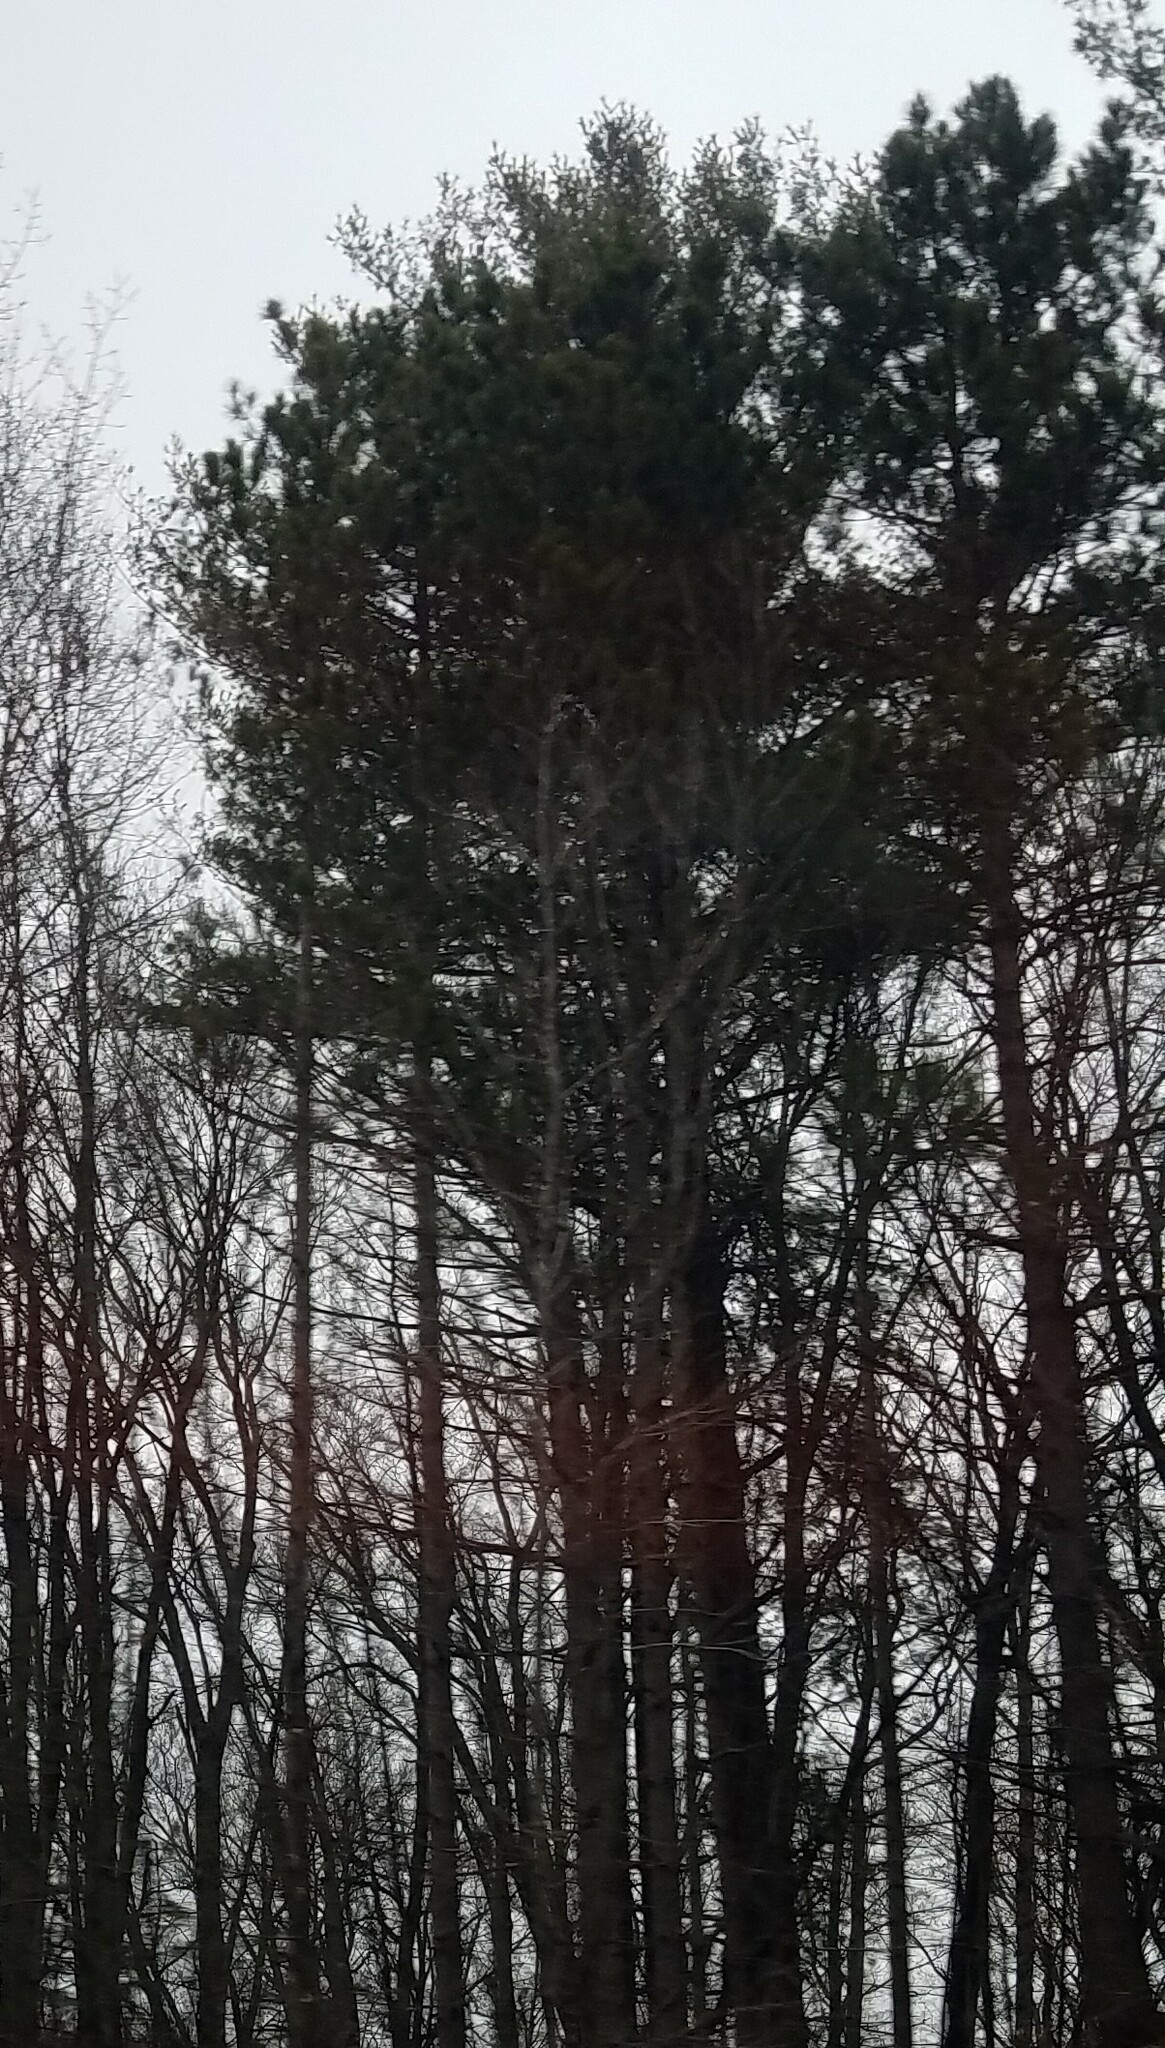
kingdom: Plantae
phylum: Tracheophyta
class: Pinopsida
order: Pinales
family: Pinaceae
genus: Pinus
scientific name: Pinus resinosa
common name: Norway pine
